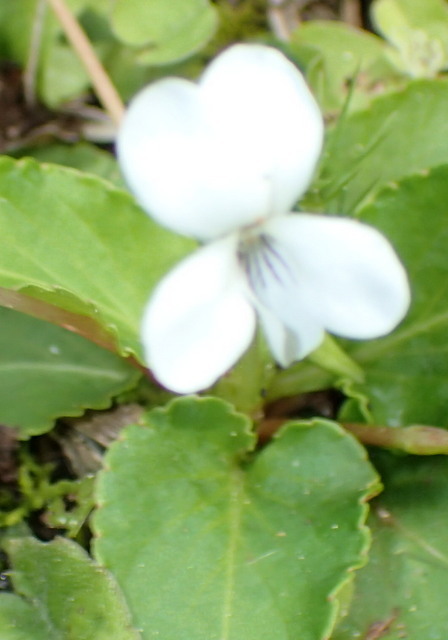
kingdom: Plantae
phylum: Tracheophyta
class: Magnoliopsida
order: Malpighiales
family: Violaceae
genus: Viola
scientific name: Viola primulifolia
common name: Primrose-leaf violet
